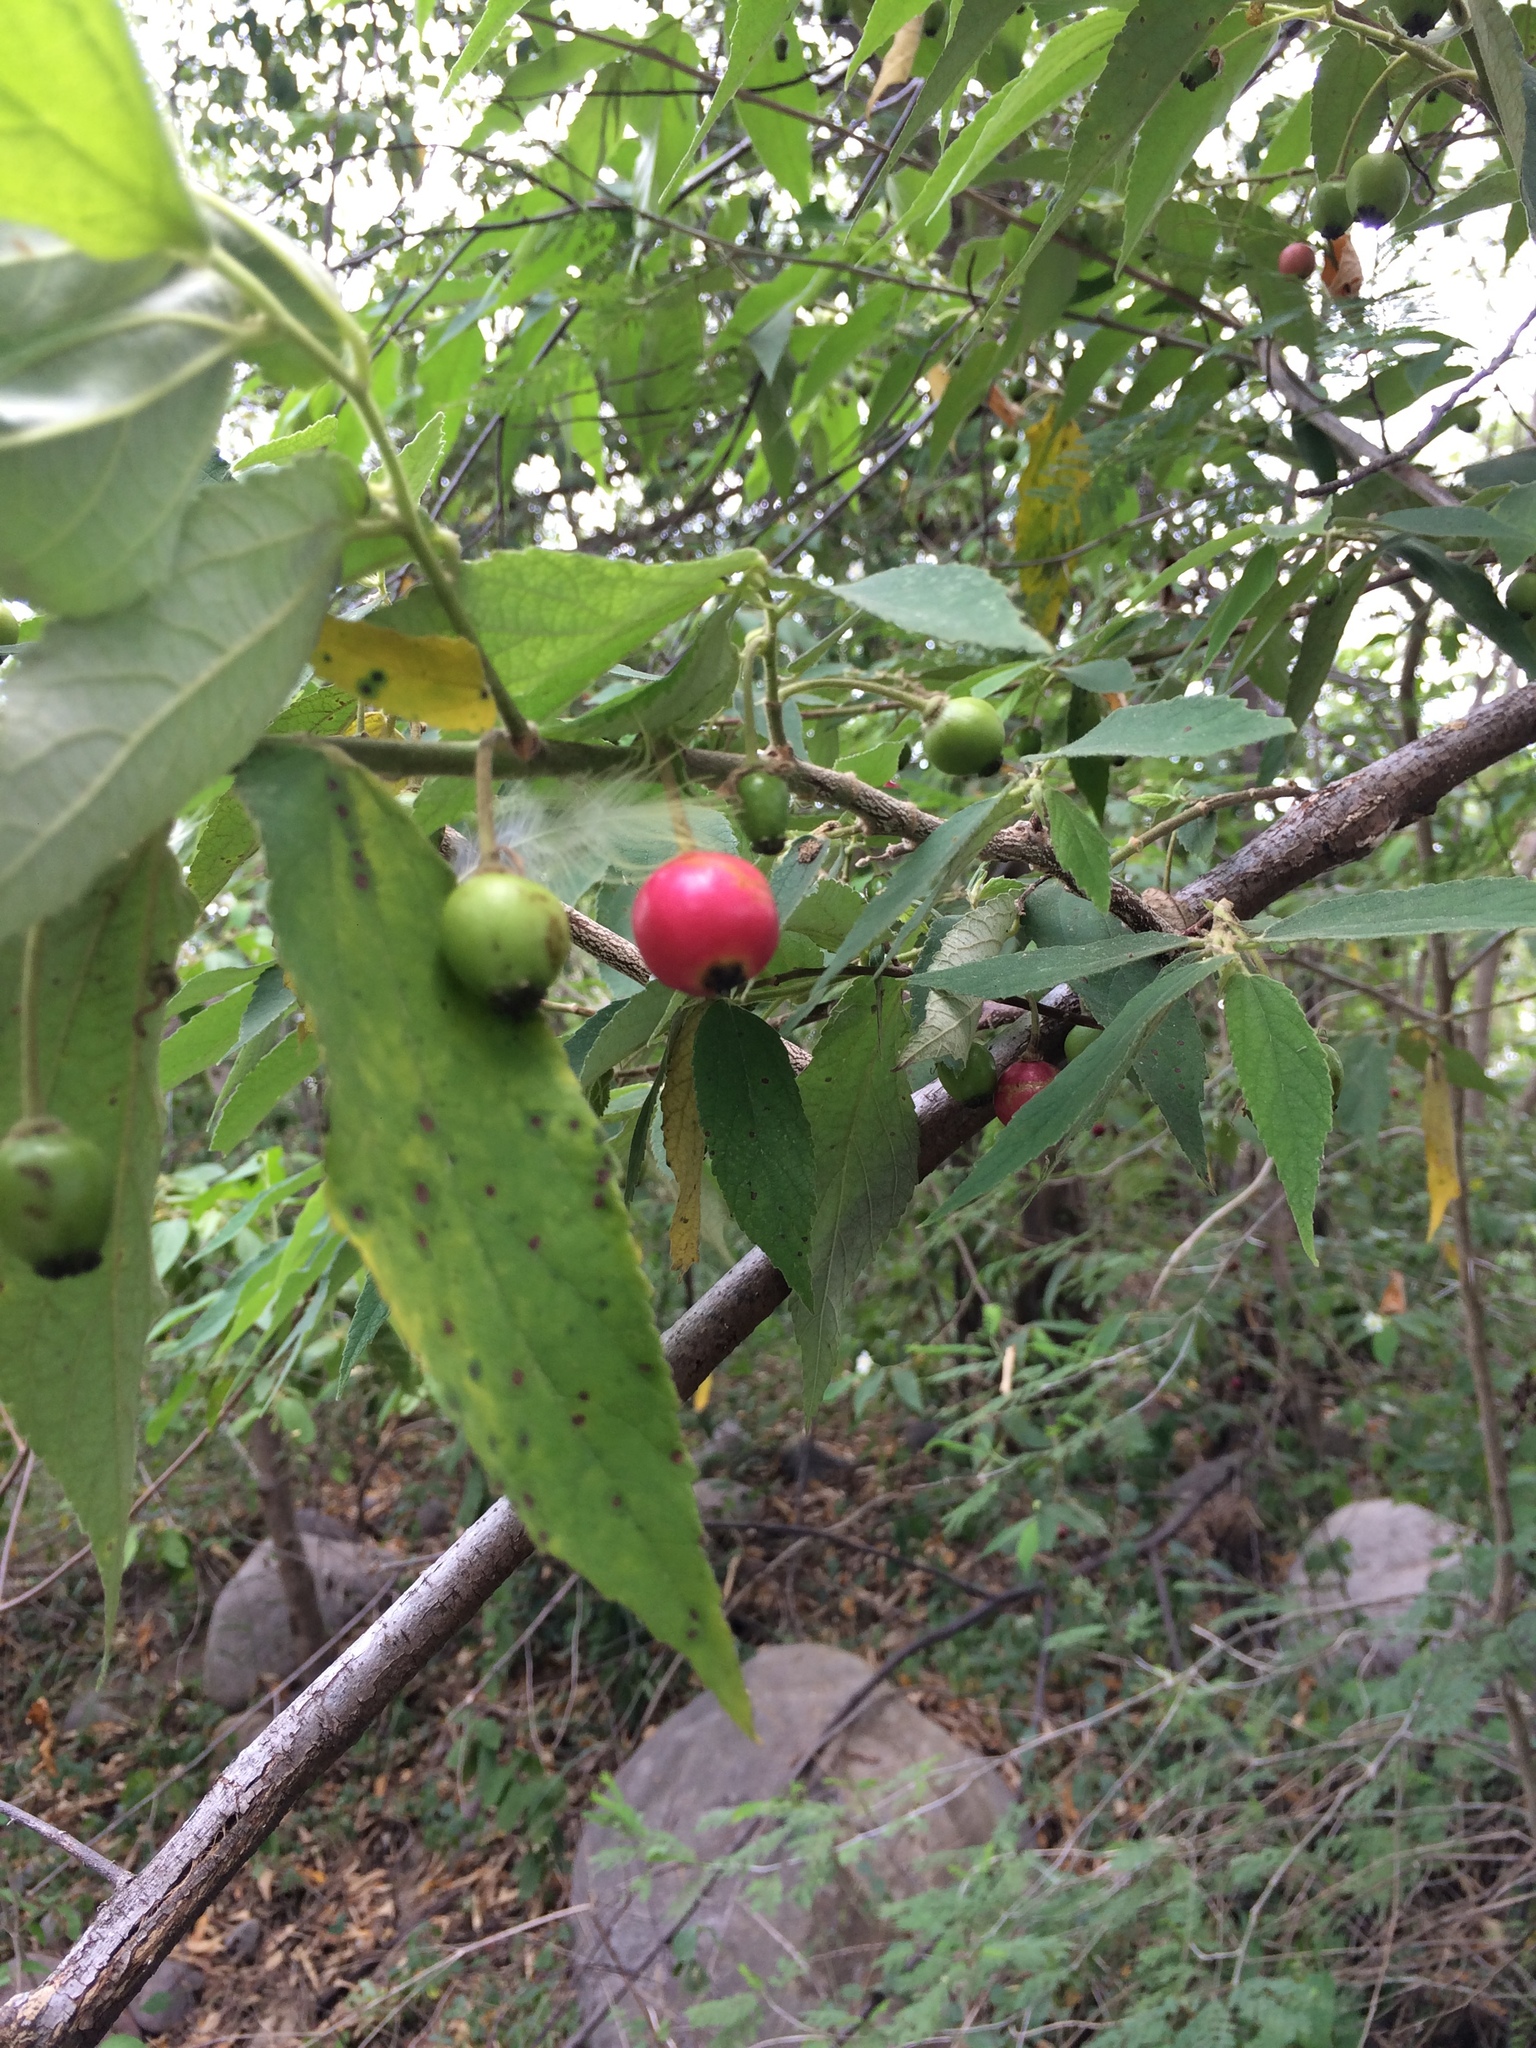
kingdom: Plantae
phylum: Tracheophyta
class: Magnoliopsida
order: Malvales
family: Muntingiaceae
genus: Muntingia
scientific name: Muntingia calabura
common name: Strawberrytree
